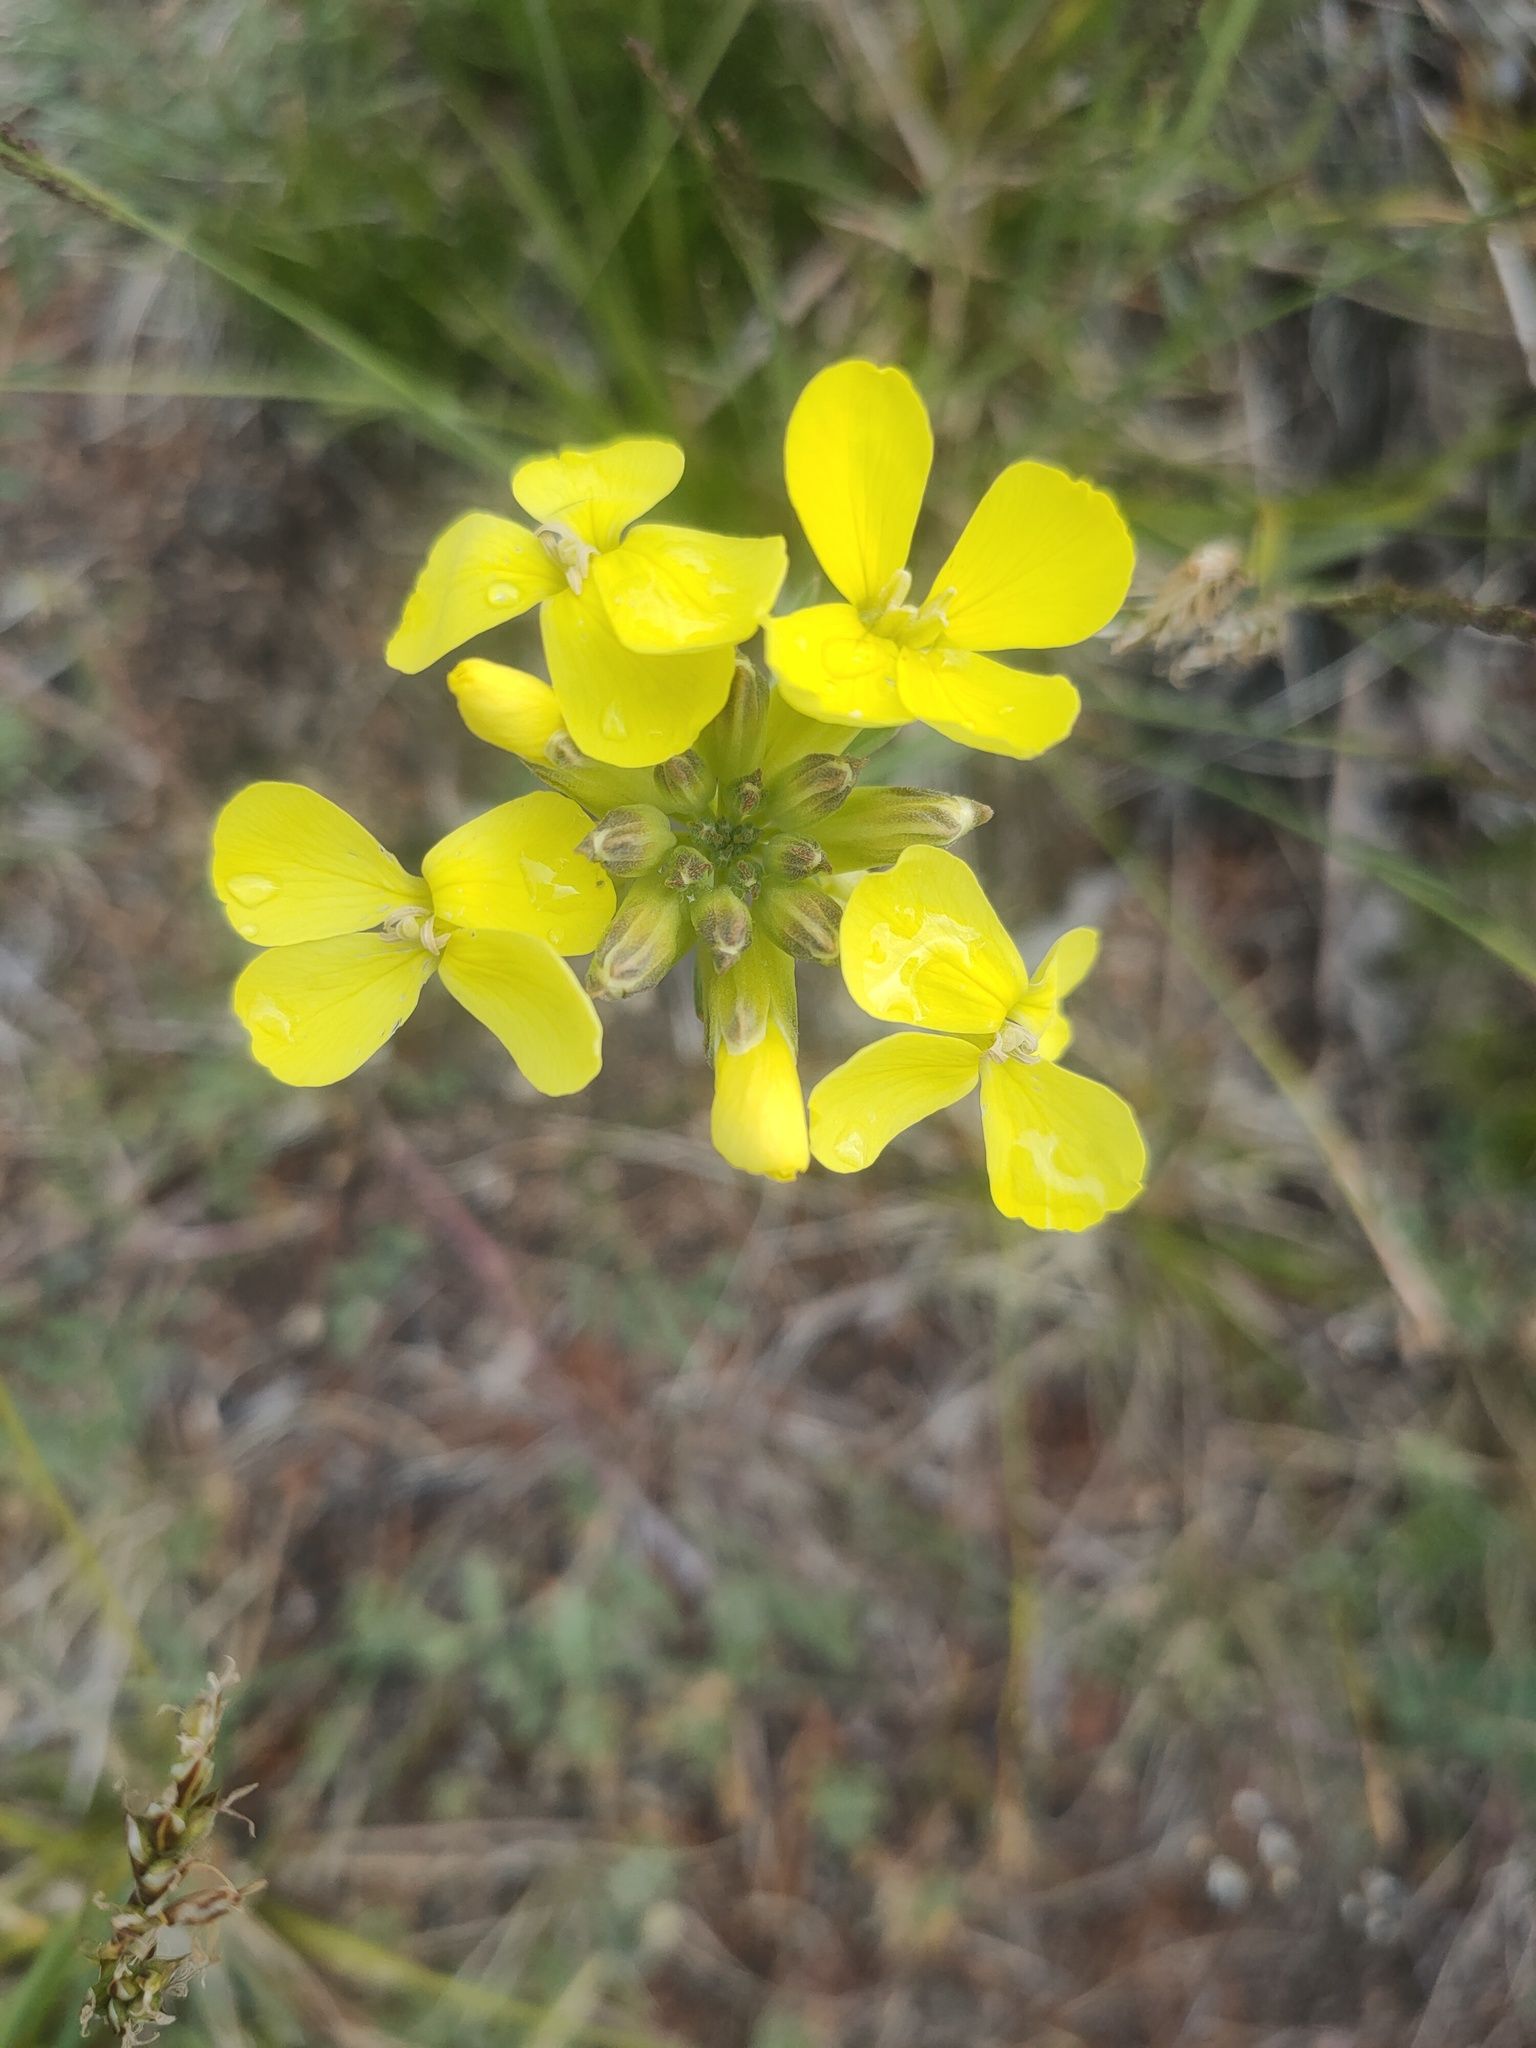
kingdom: Plantae
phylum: Tracheophyta
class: Magnoliopsida
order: Brassicales
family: Brassicaceae
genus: Erysimum
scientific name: Erysimum flavum
